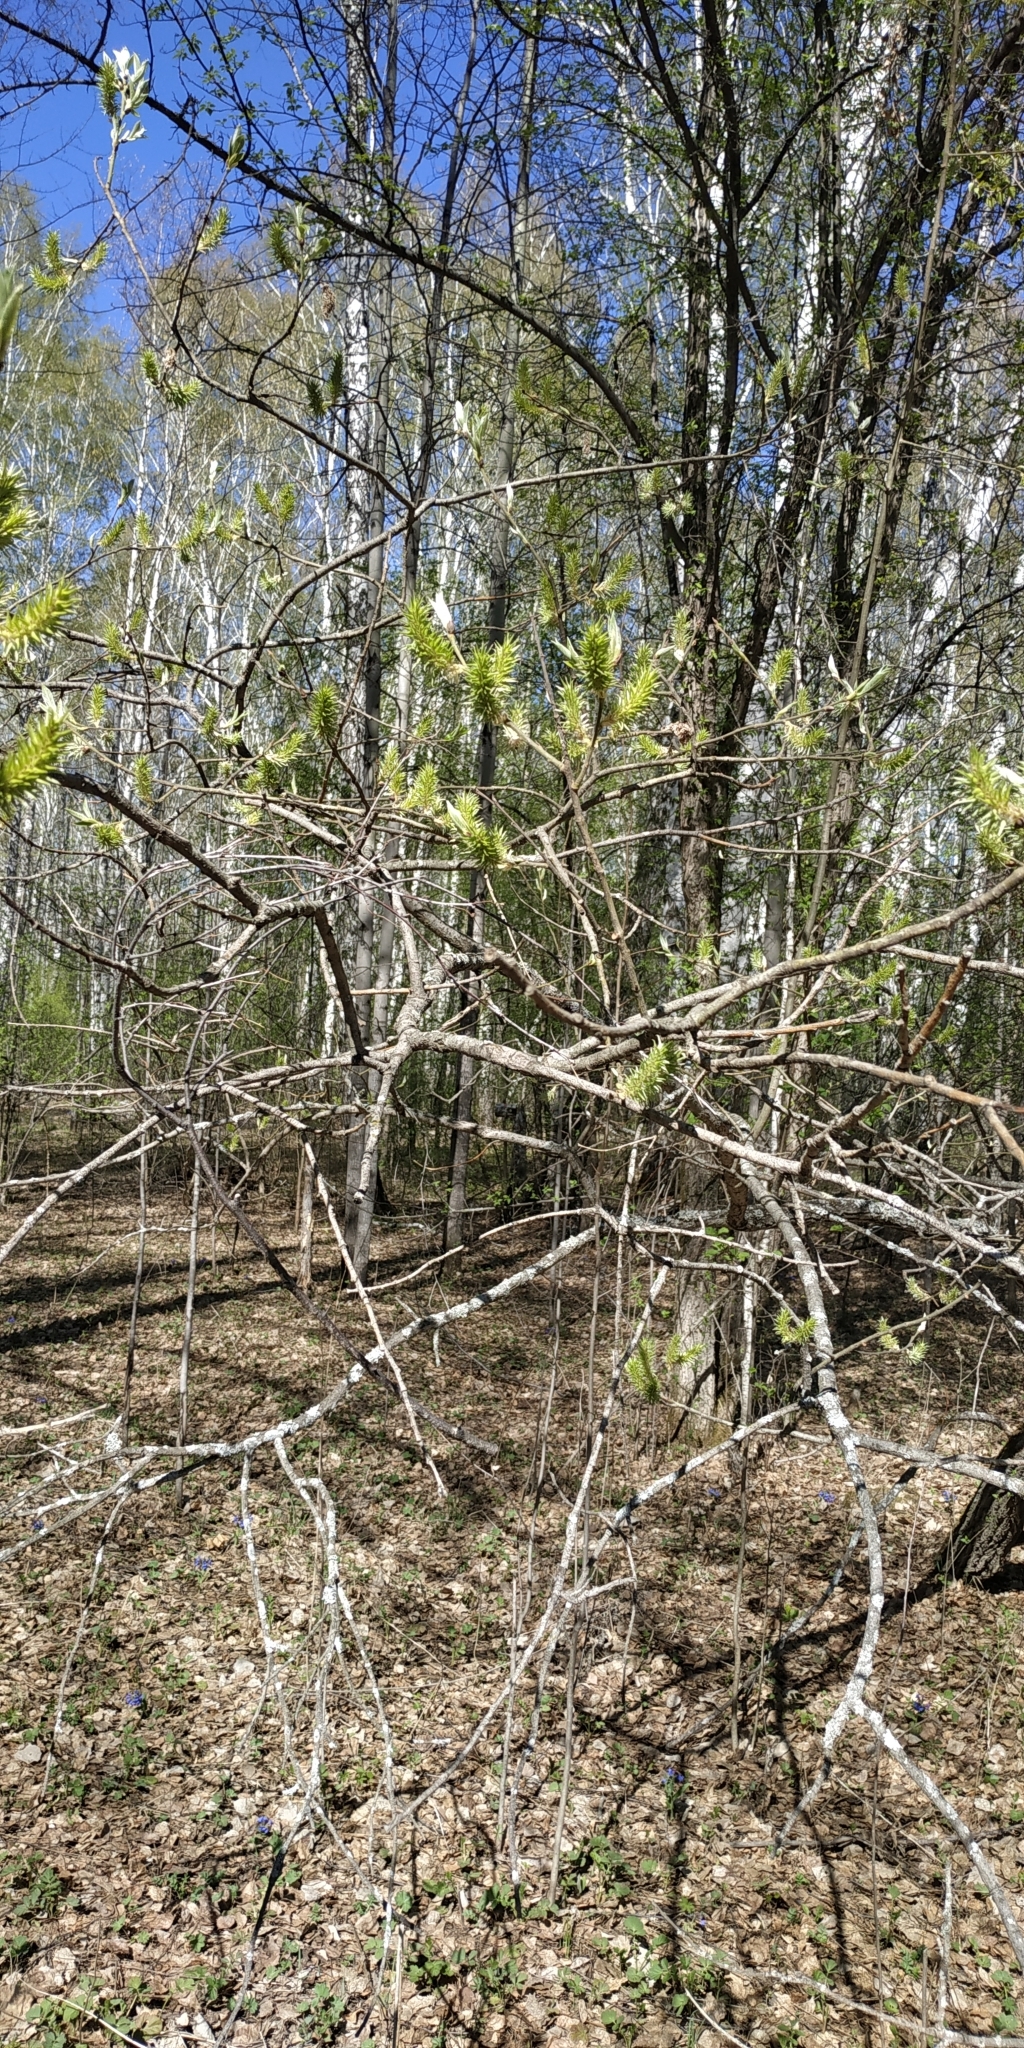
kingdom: Plantae
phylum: Tracheophyta
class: Magnoliopsida
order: Malpighiales
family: Salicaceae
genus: Salix
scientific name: Salix caprea
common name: Goat willow
